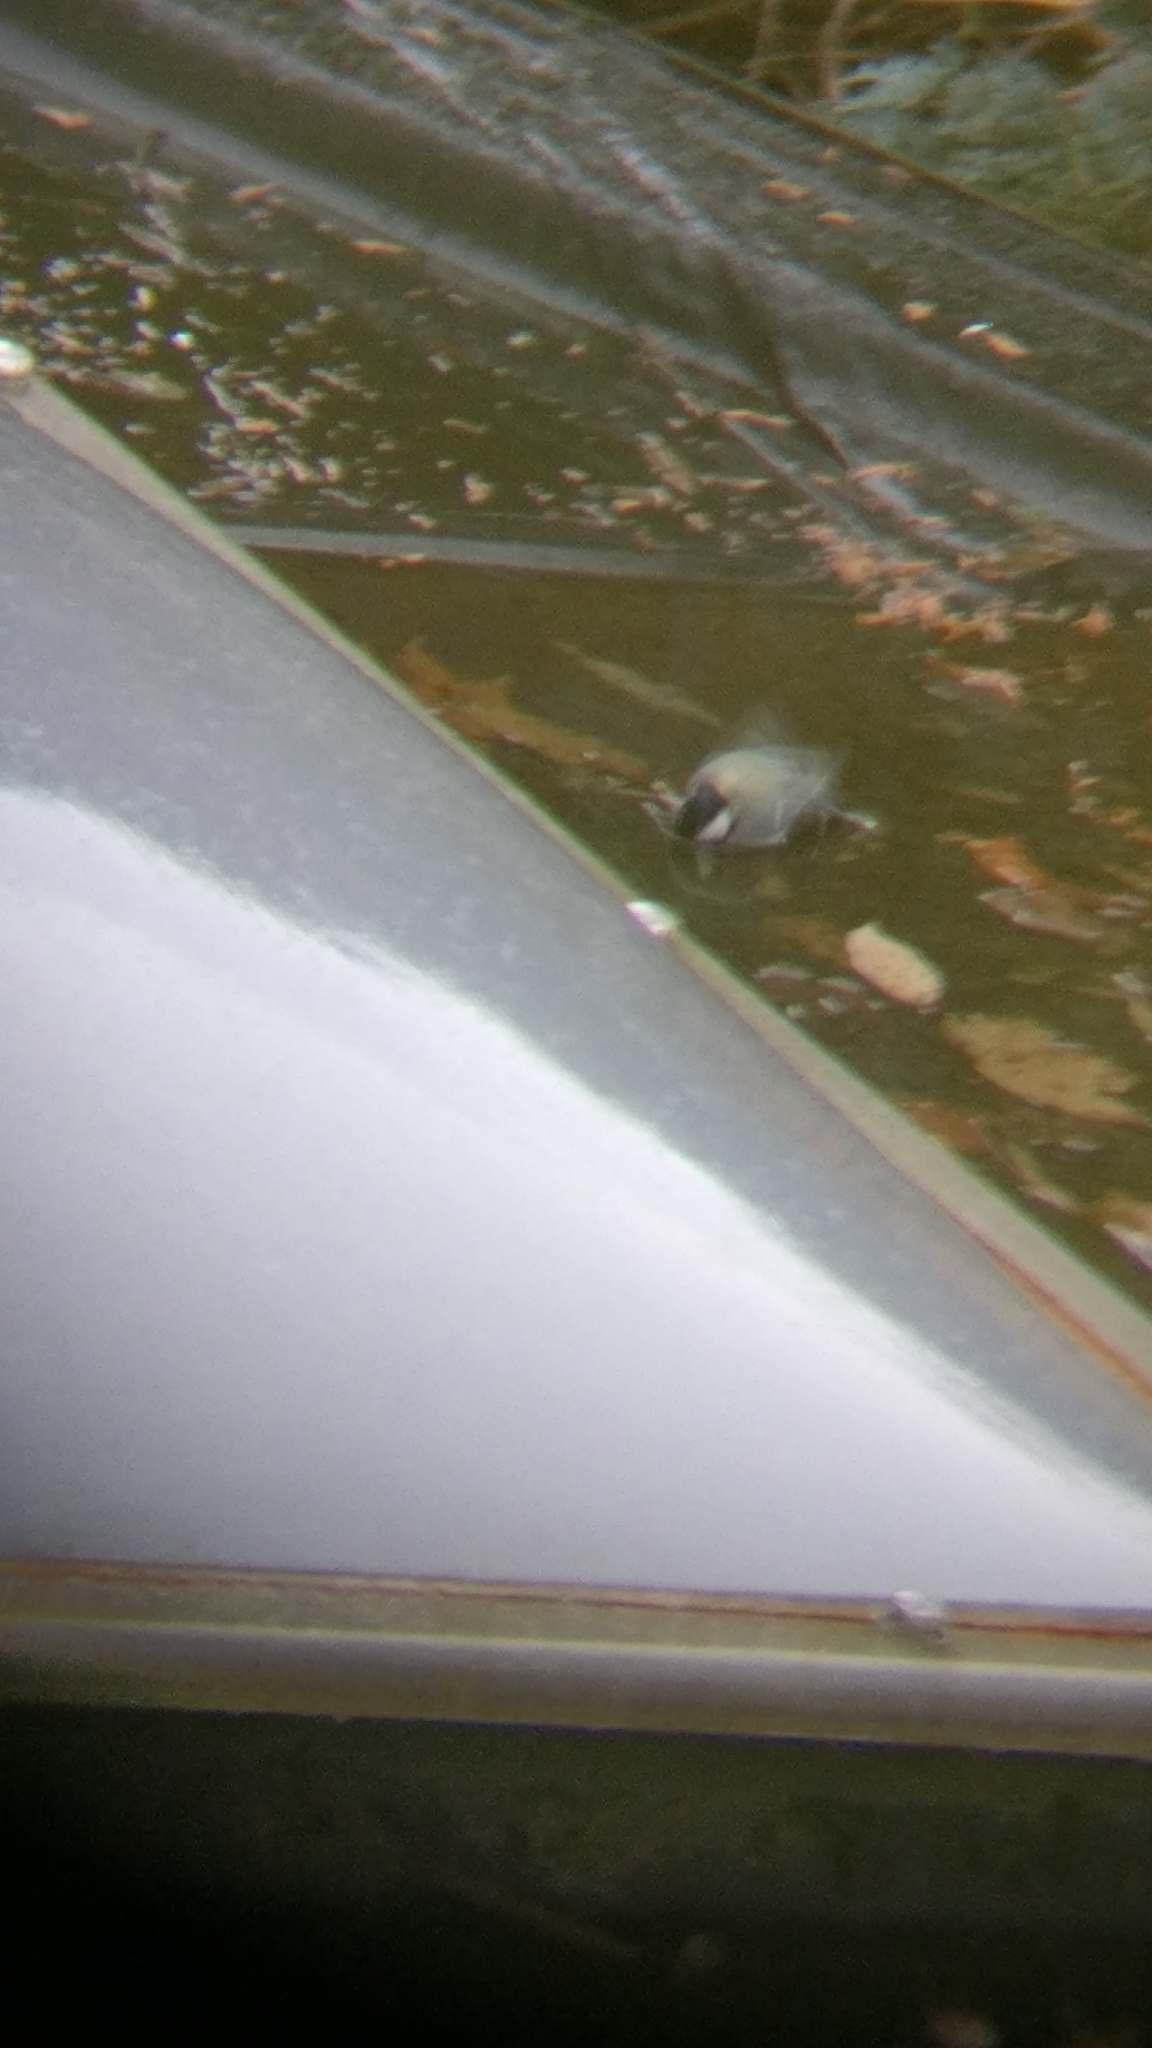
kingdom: Animalia
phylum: Chordata
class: Aves
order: Passeriformes
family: Paridae
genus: Parus
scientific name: Parus major
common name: Great tit
